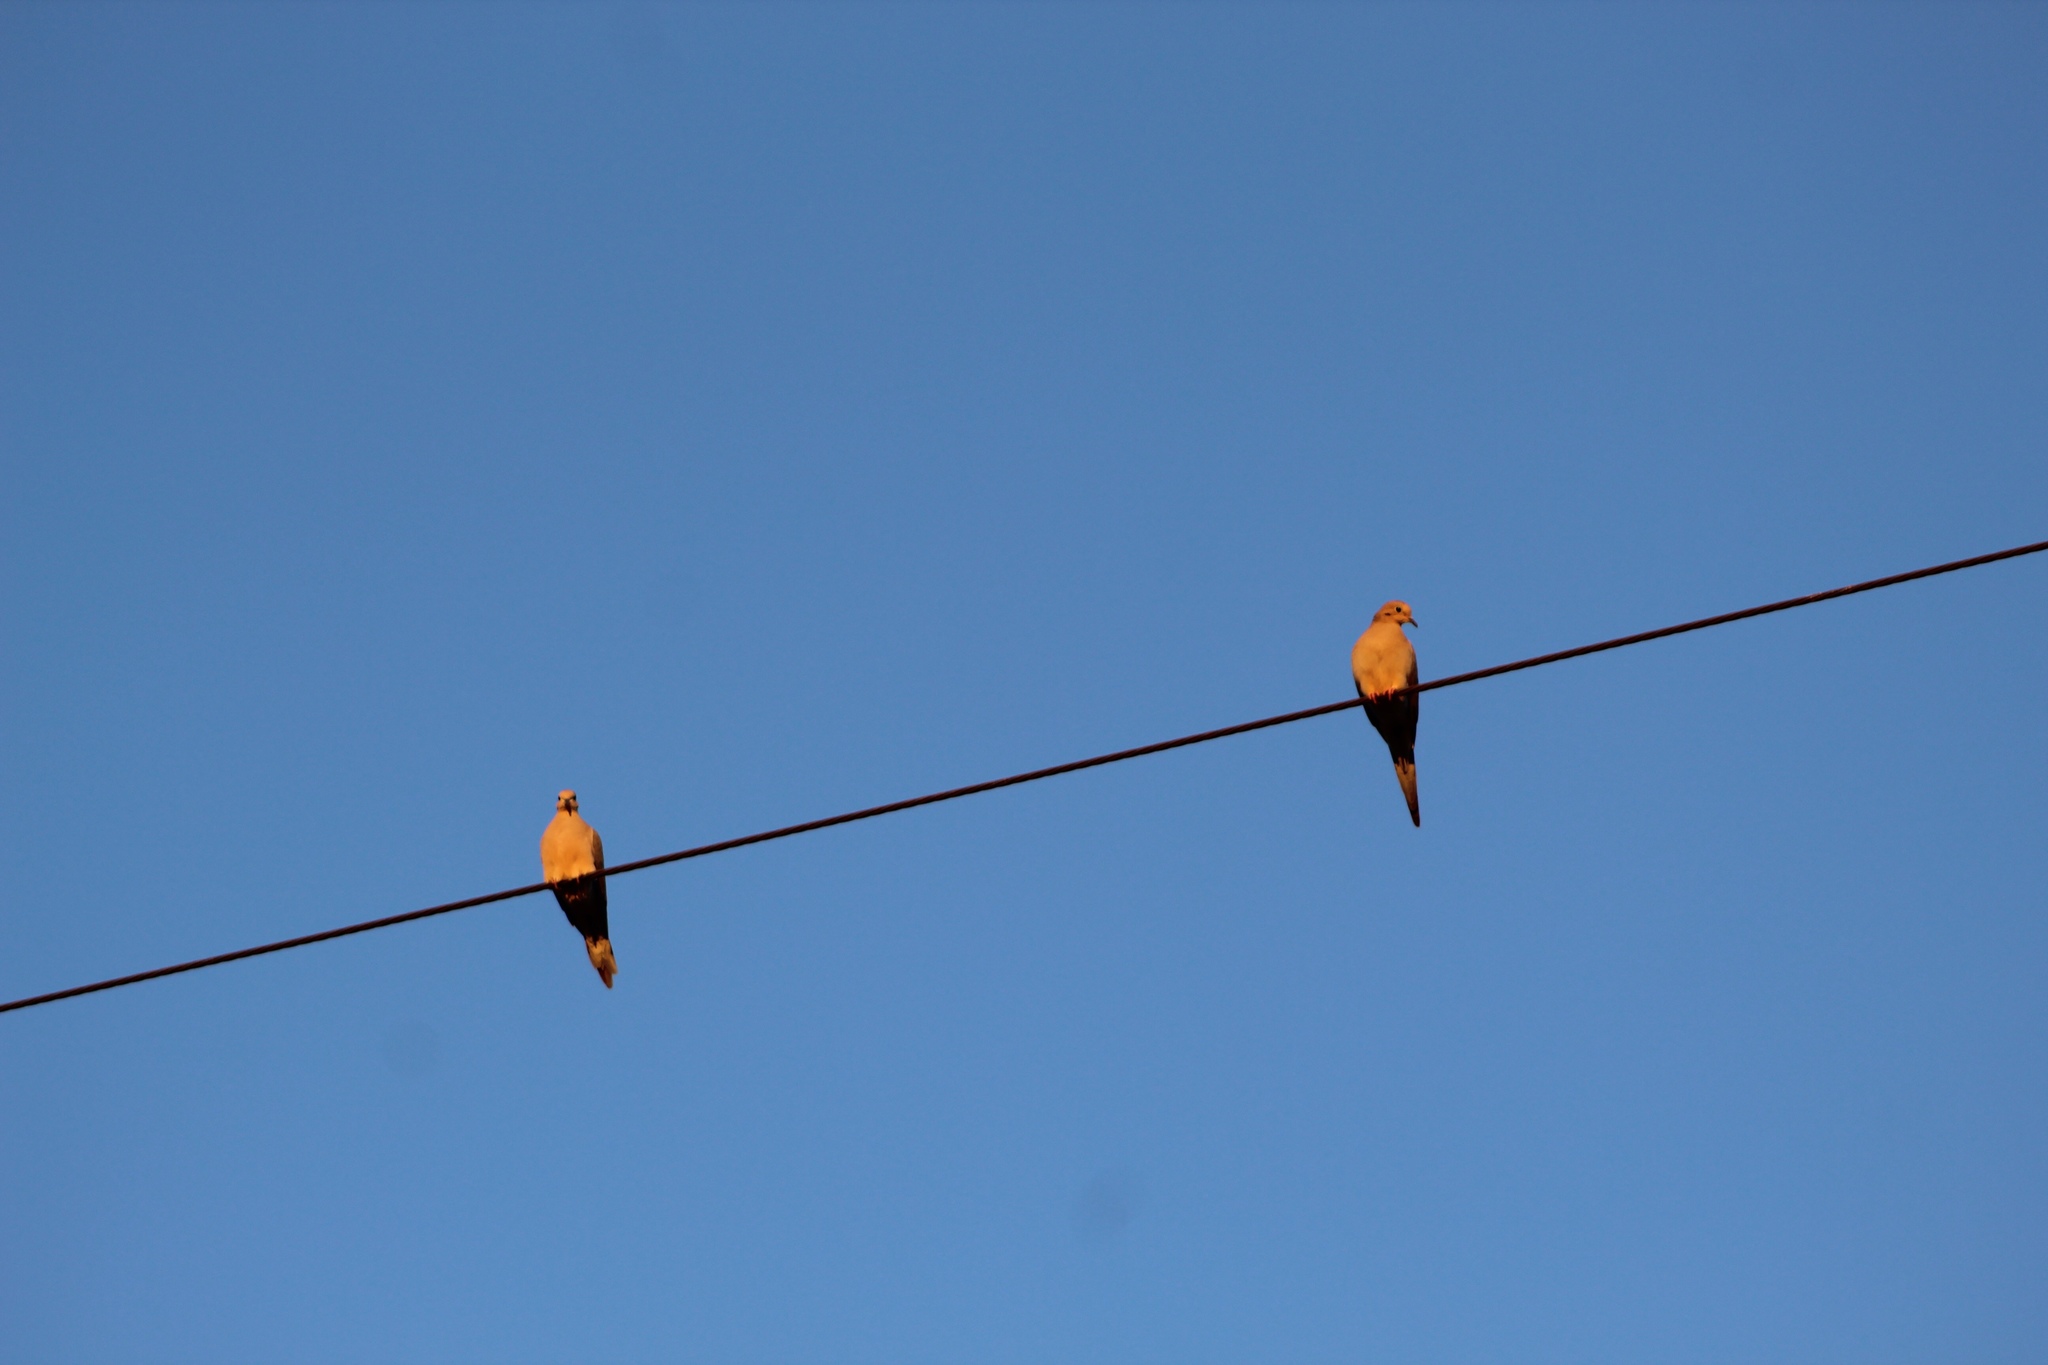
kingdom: Animalia
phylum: Chordata
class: Aves
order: Columbiformes
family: Columbidae
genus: Zenaida
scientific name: Zenaida macroura
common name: Mourning dove
